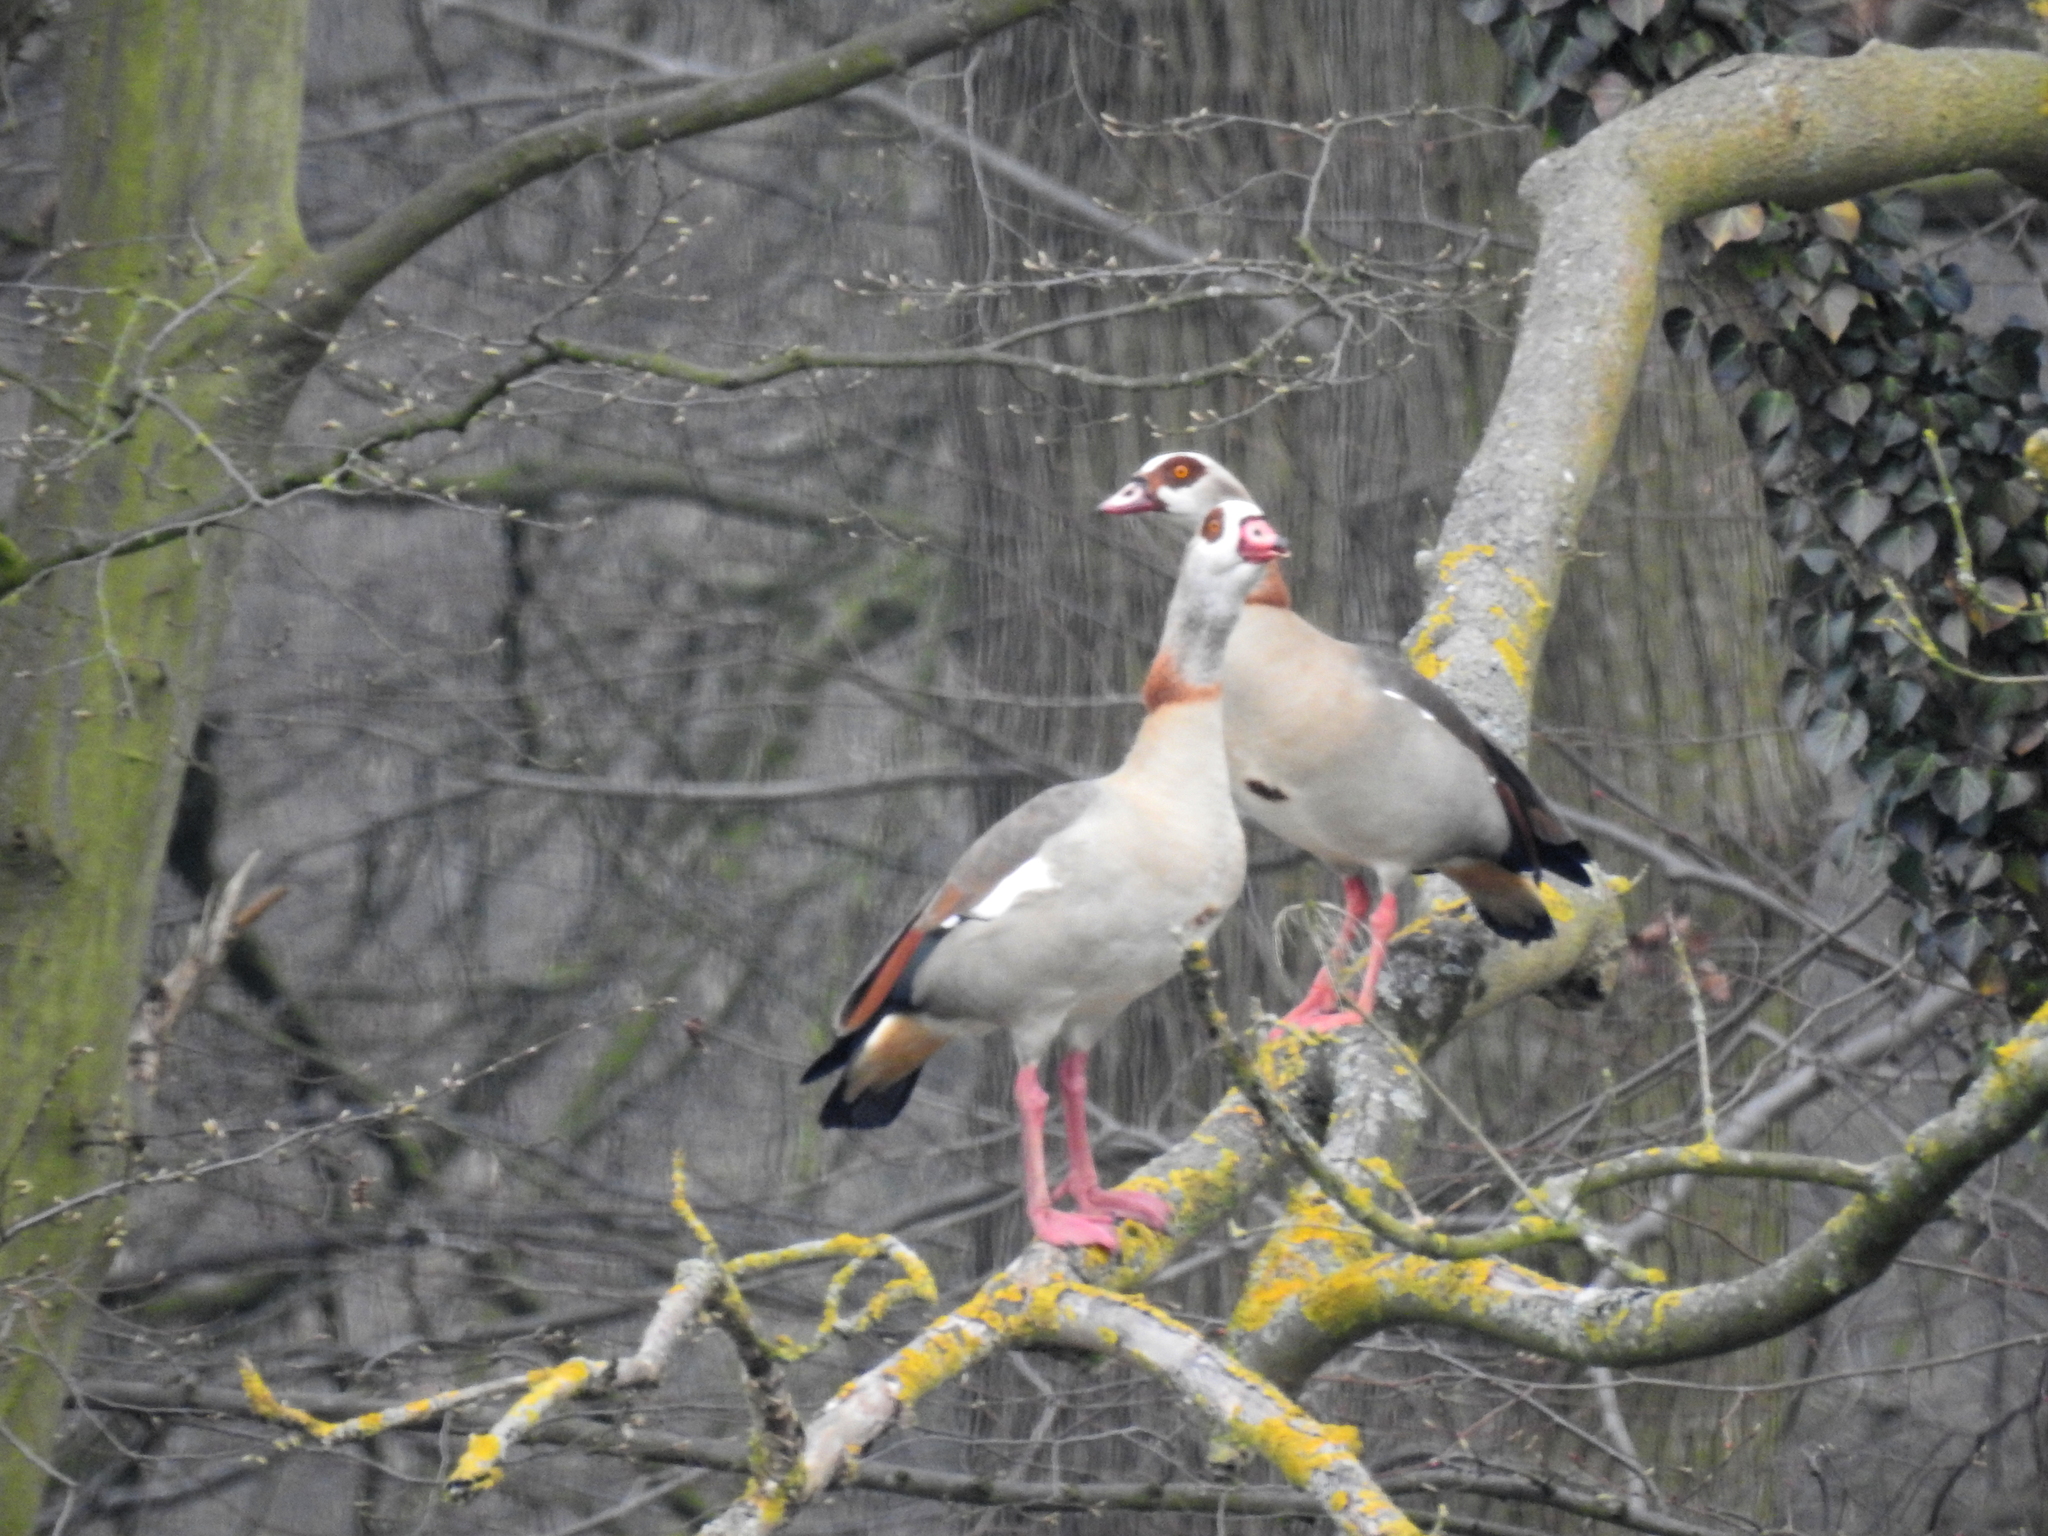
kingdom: Animalia
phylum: Chordata
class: Aves
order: Anseriformes
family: Anatidae
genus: Alopochen
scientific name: Alopochen aegyptiaca
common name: Egyptian goose
